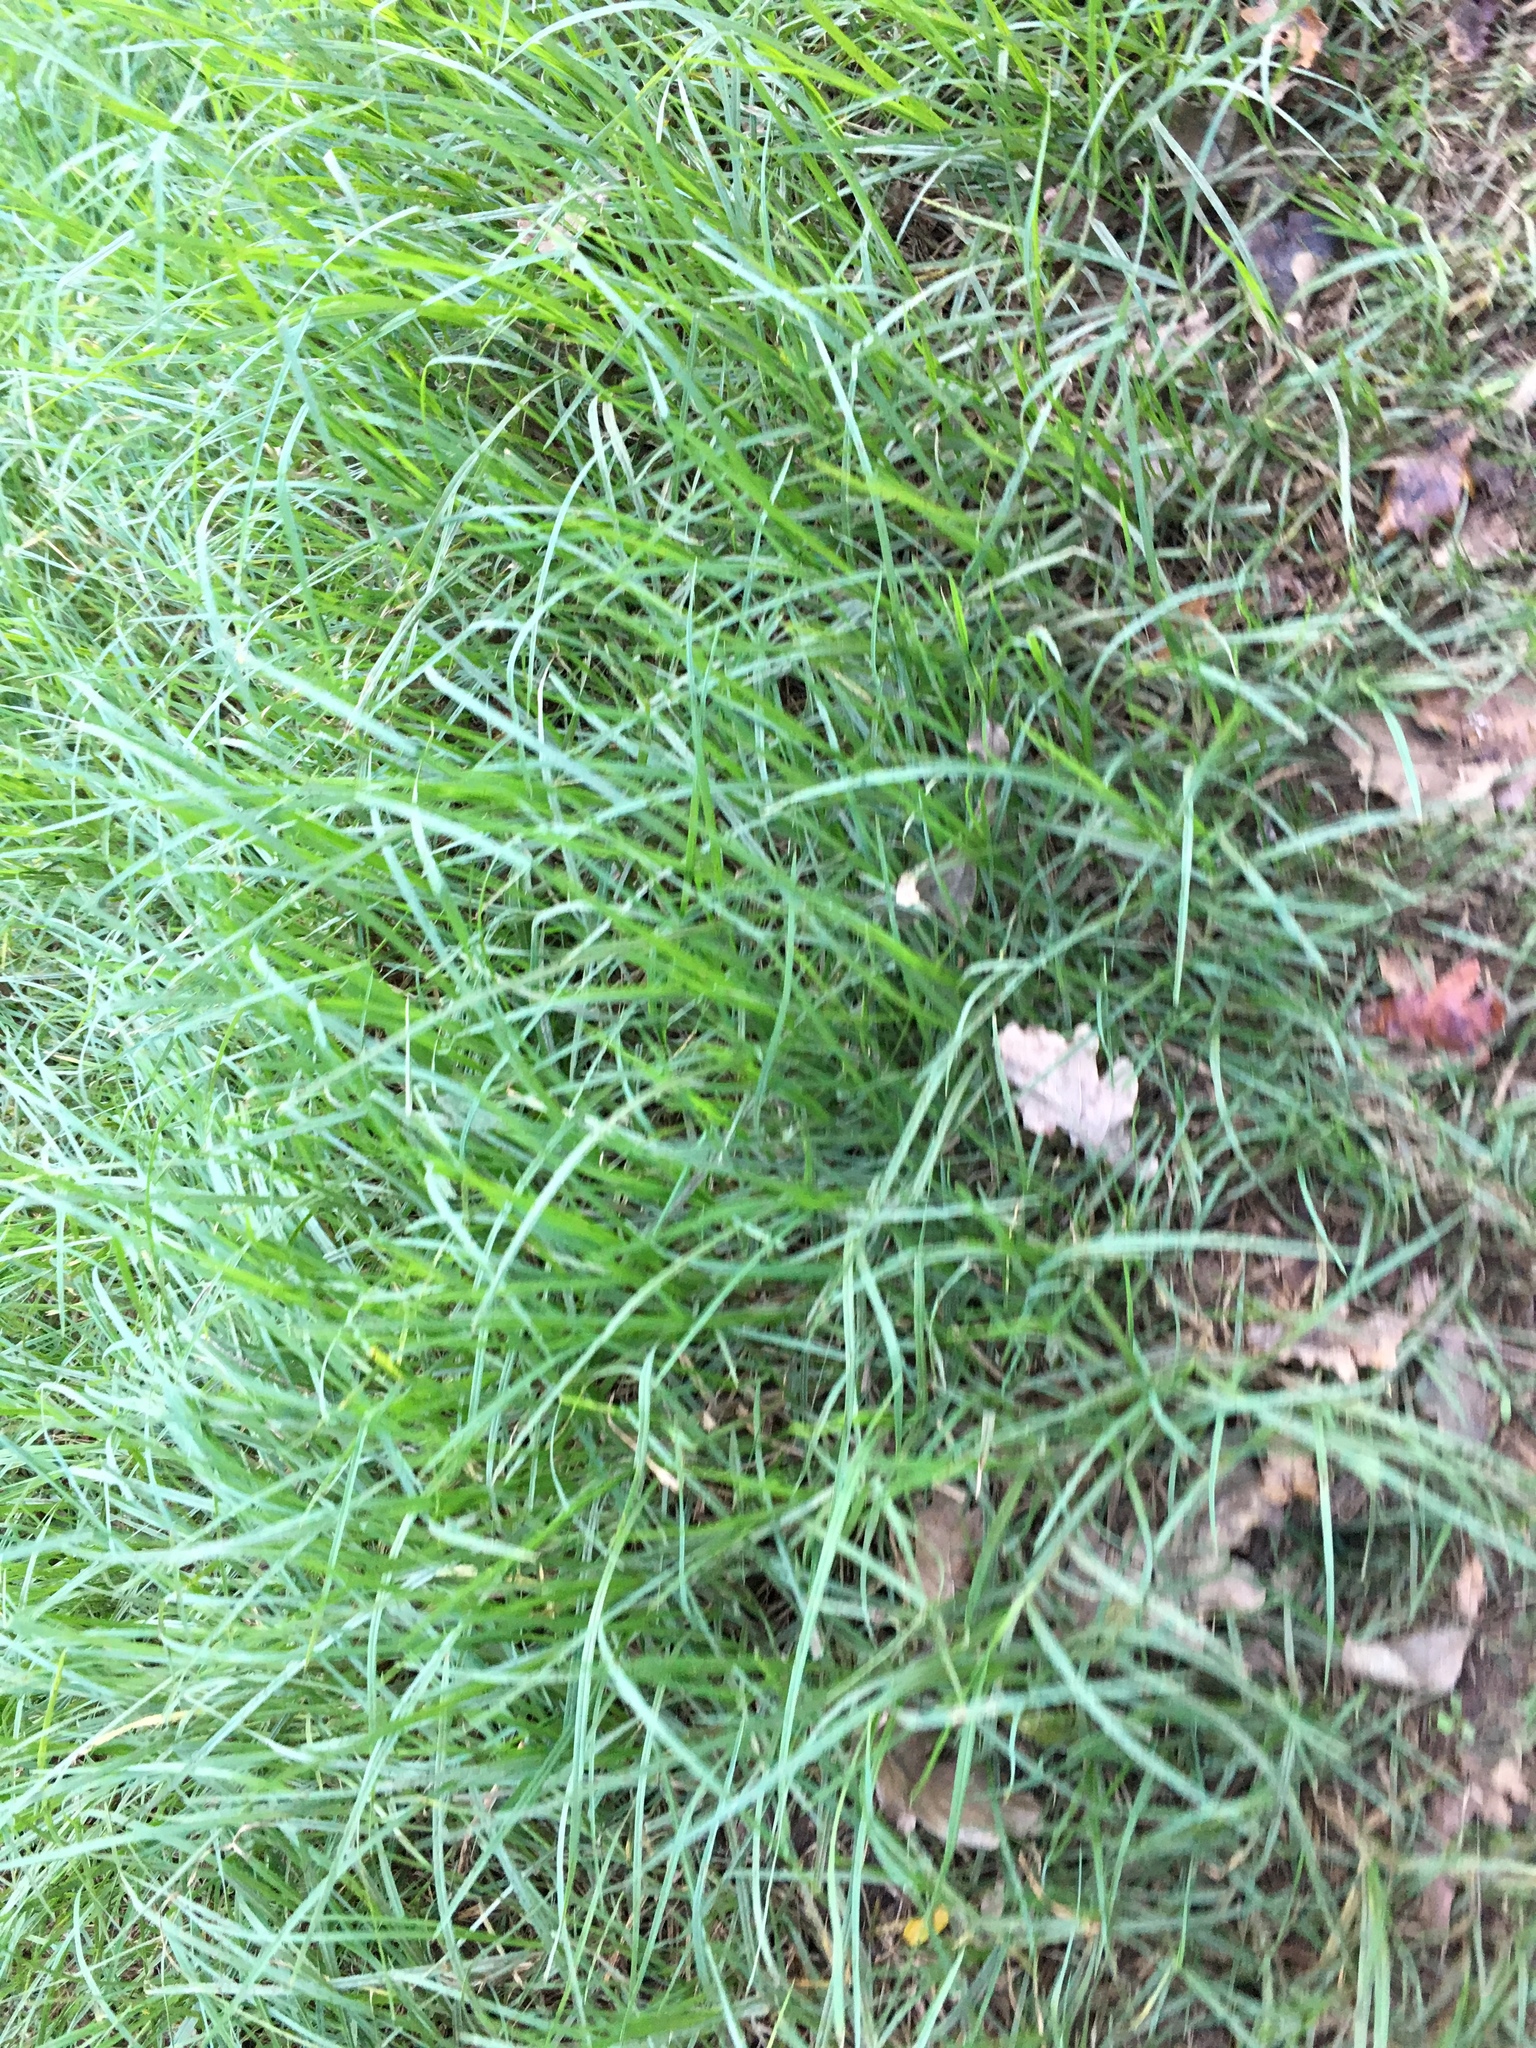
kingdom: Plantae
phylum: Tracheophyta
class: Liliopsida
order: Poales
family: Poaceae
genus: Cenchrus
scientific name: Cenchrus clandestinus
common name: Kikuyugrass
